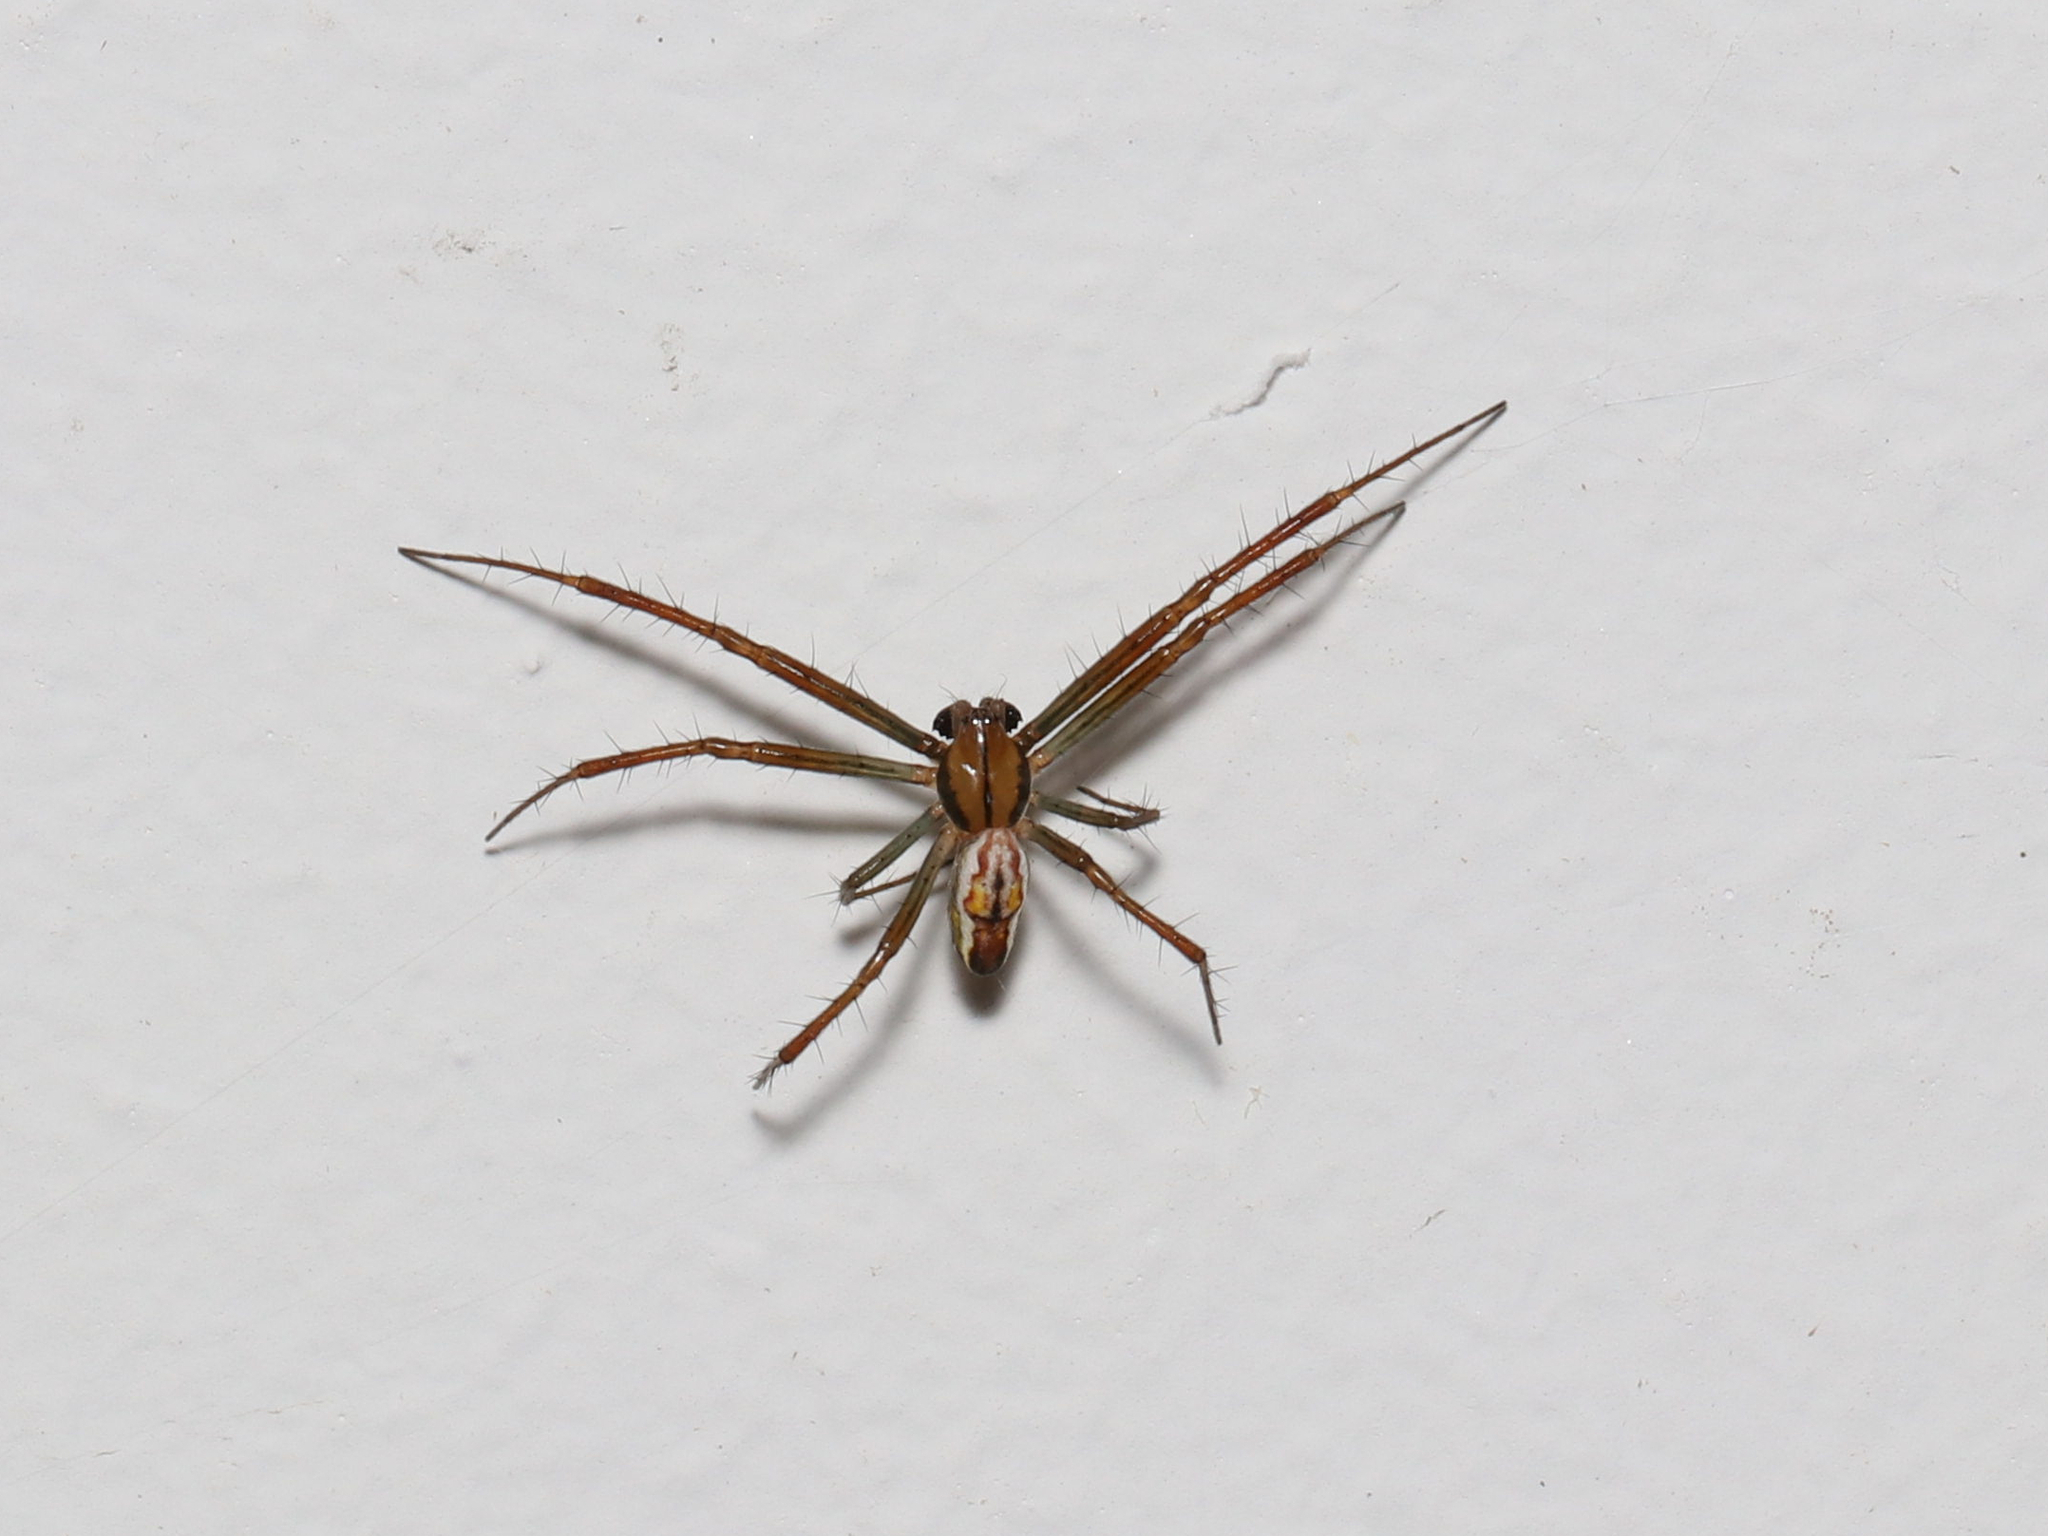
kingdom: Animalia
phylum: Arthropoda
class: Arachnida
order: Araneae
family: Araneidae
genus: Mecynogea
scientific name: Mecynogea lemniscata
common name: Orb weavers
